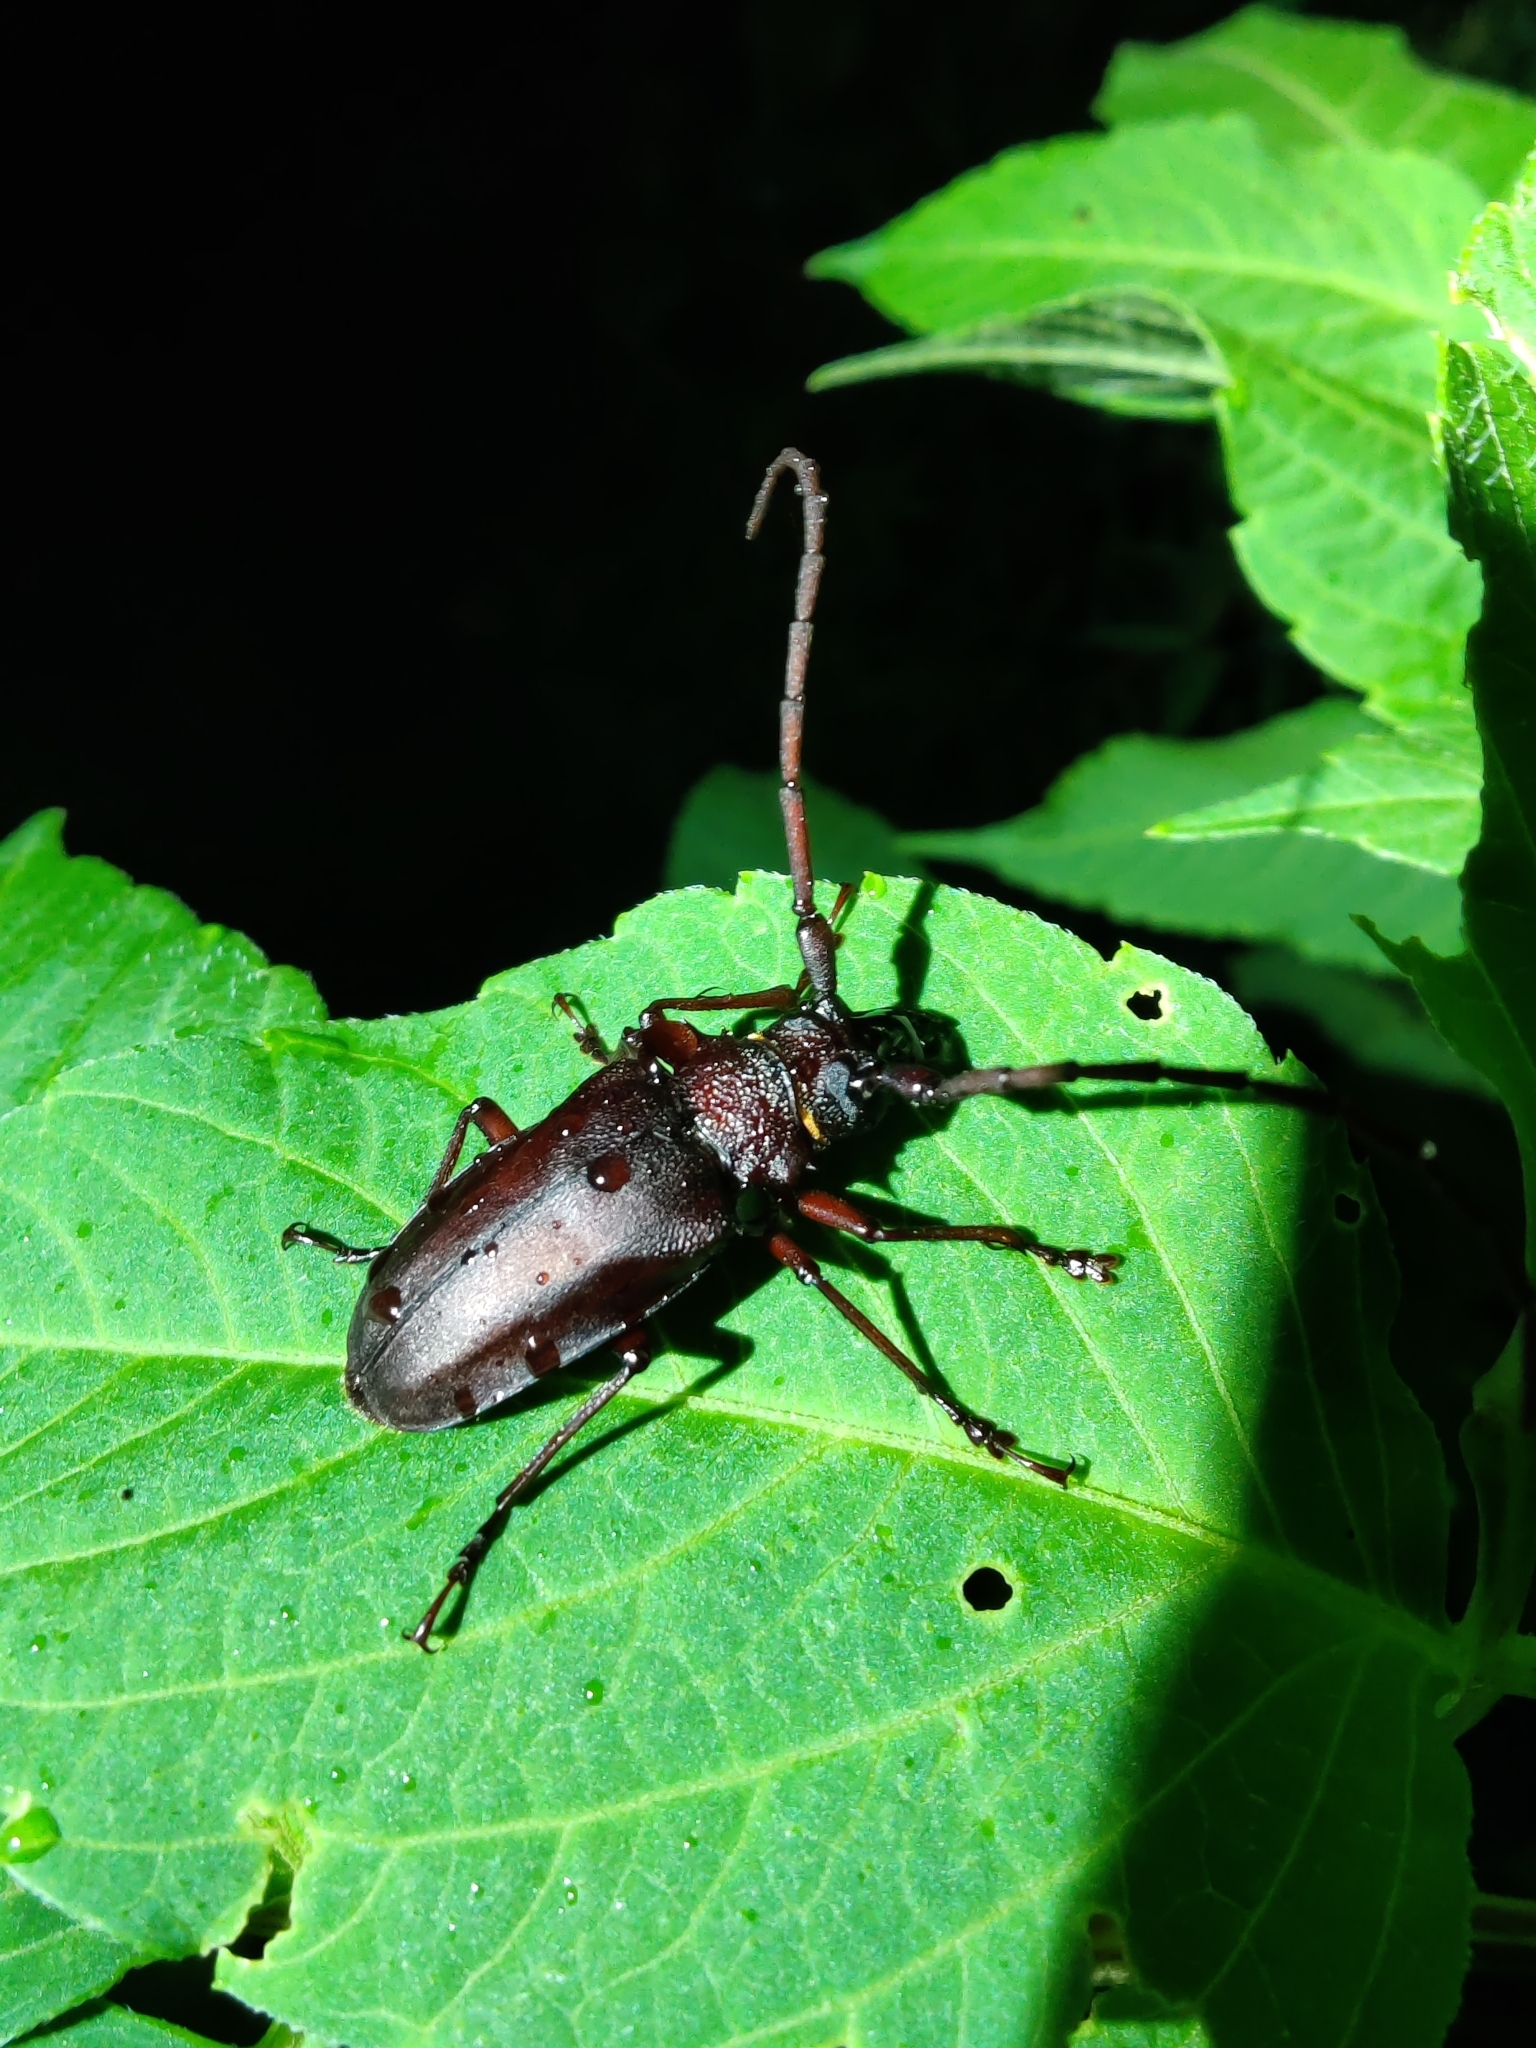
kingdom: Animalia
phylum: Arthropoda
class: Insecta
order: Coleoptera
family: Cerambycidae
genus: Priotyrannus
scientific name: Priotyrannus mordax
